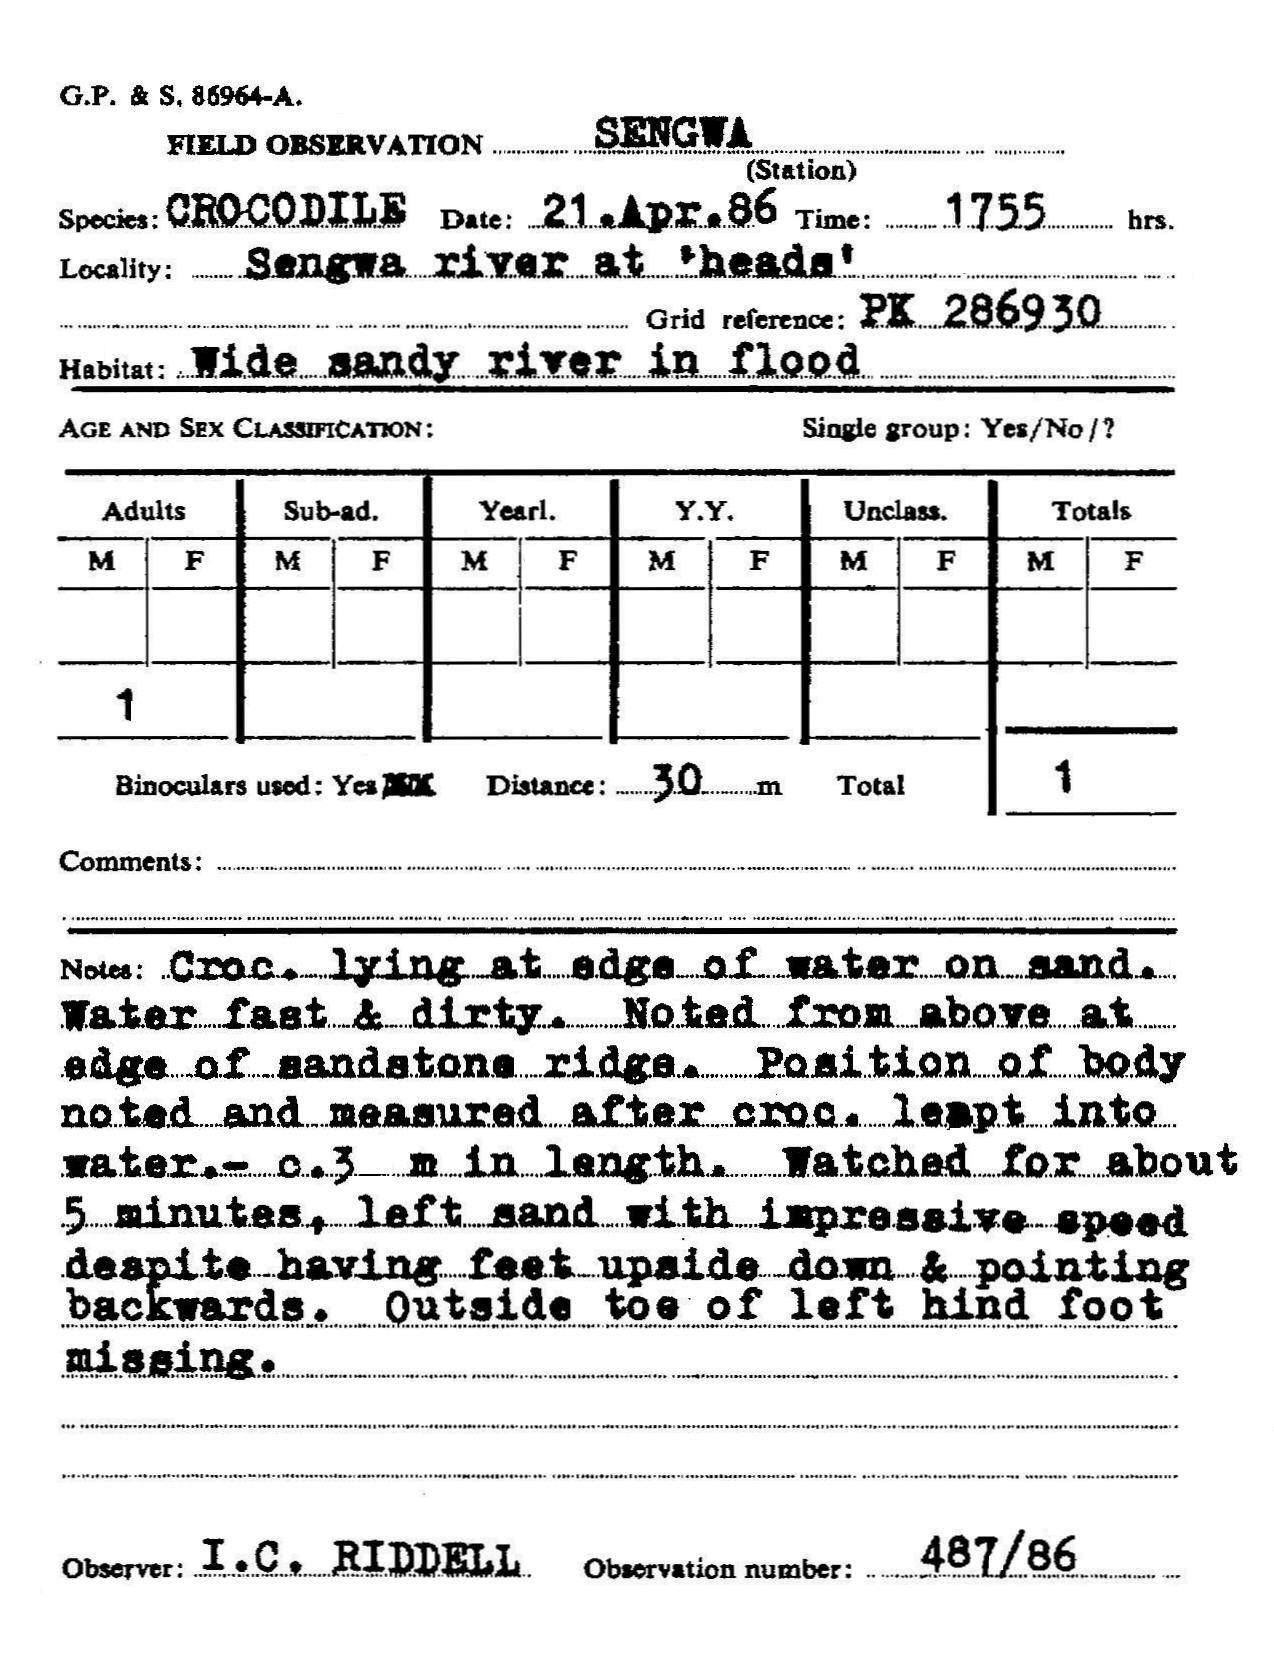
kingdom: Animalia
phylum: Chordata
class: Crocodylia
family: Crocodylidae
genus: Crocodylus
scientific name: Crocodylus niloticus
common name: Nile crocodile
